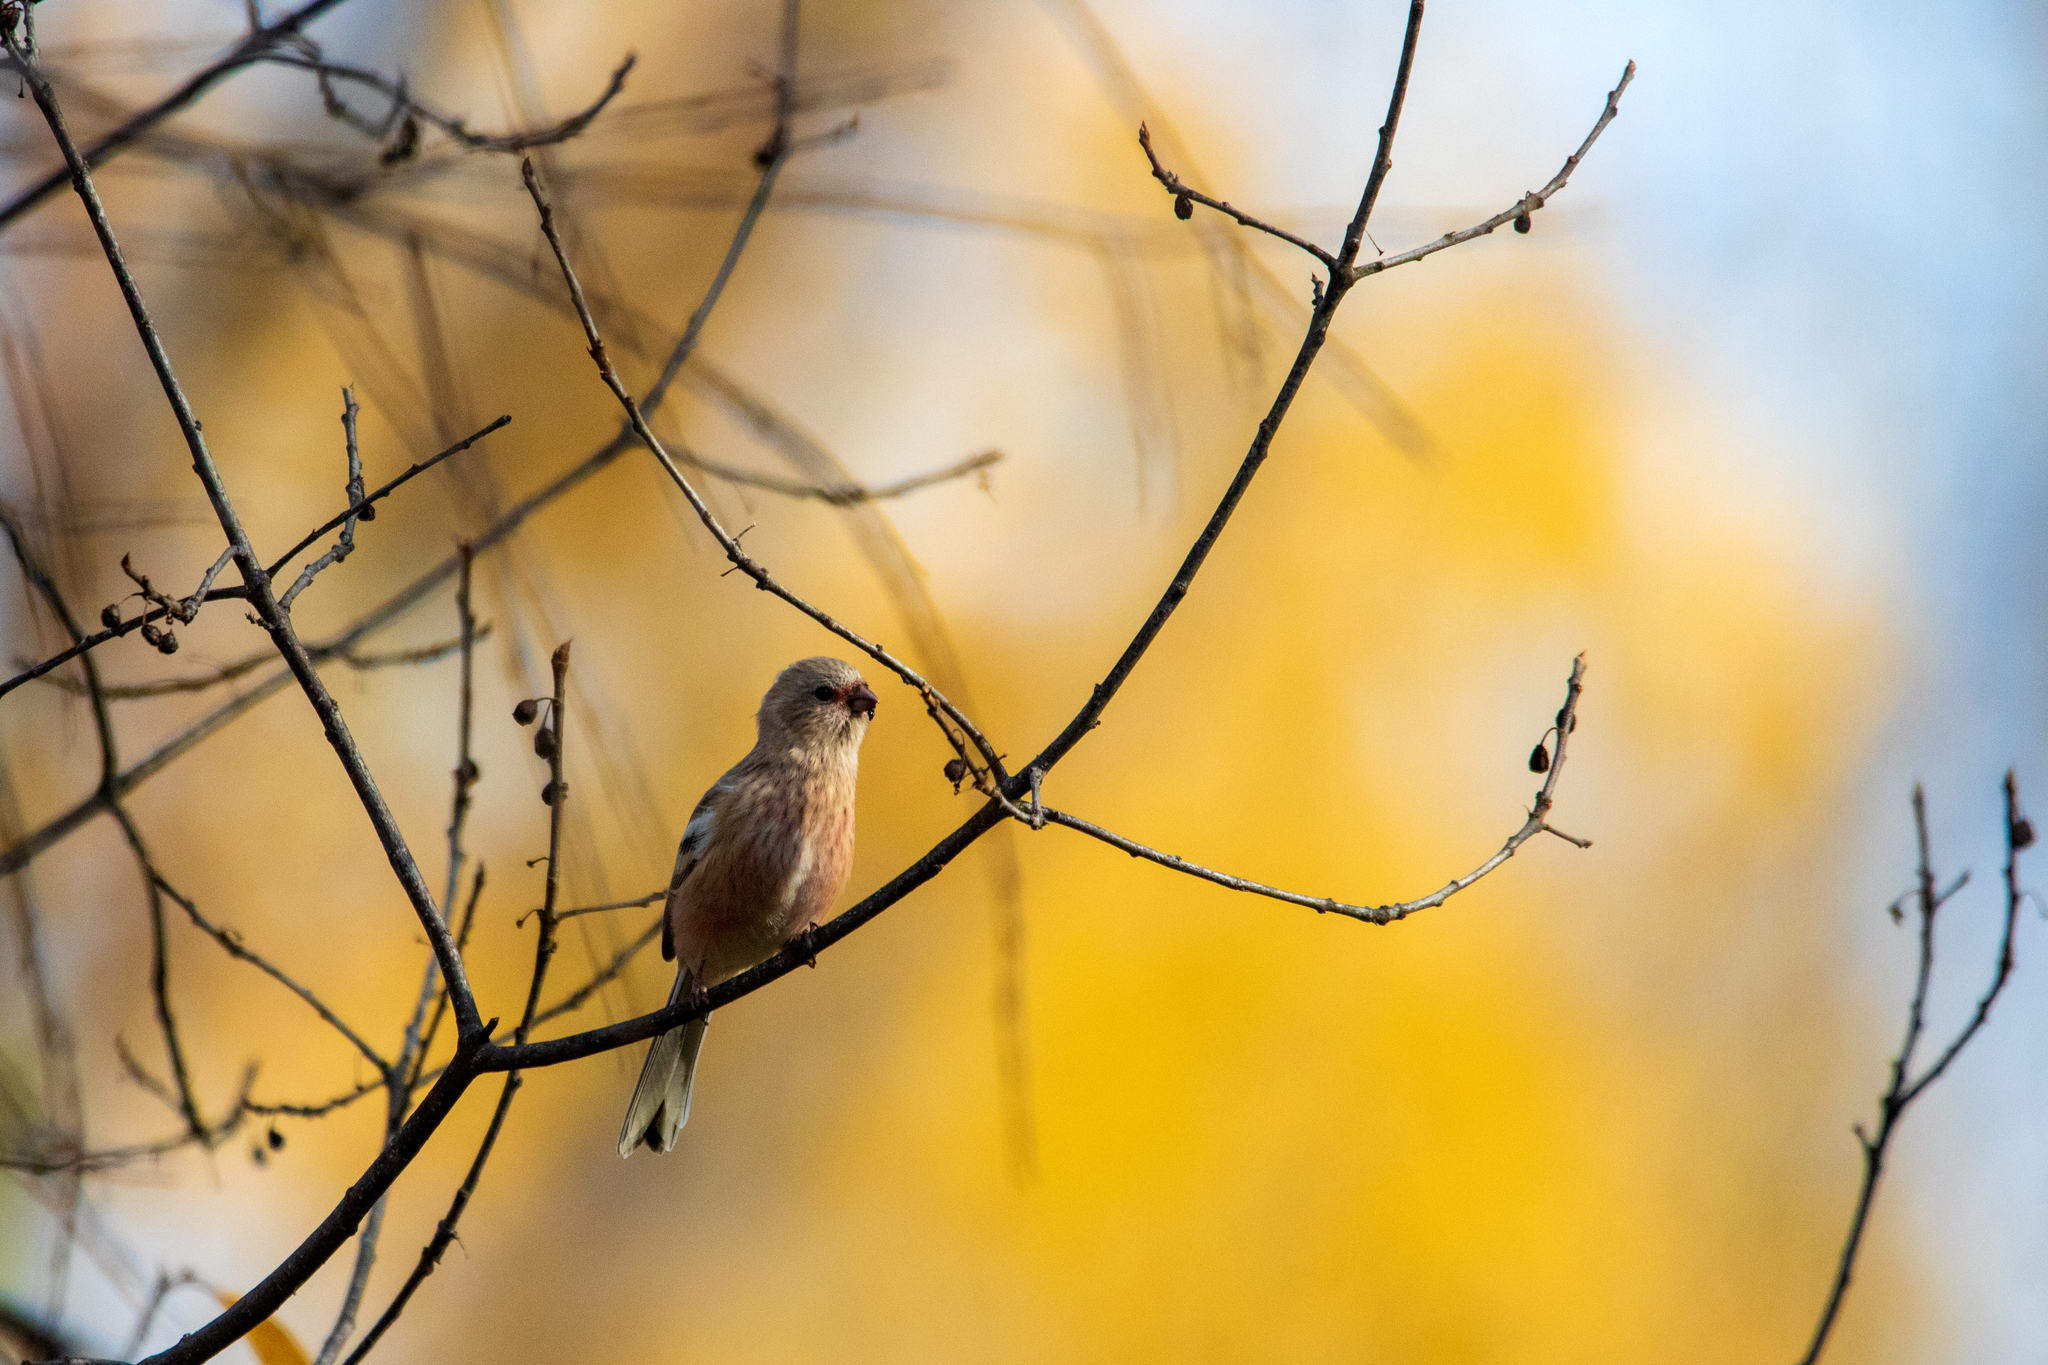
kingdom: Animalia
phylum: Chordata
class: Aves
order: Passeriformes
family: Fringillidae
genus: Carpodacus
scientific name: Carpodacus sibiricus
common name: Long-tailed rosefinch
